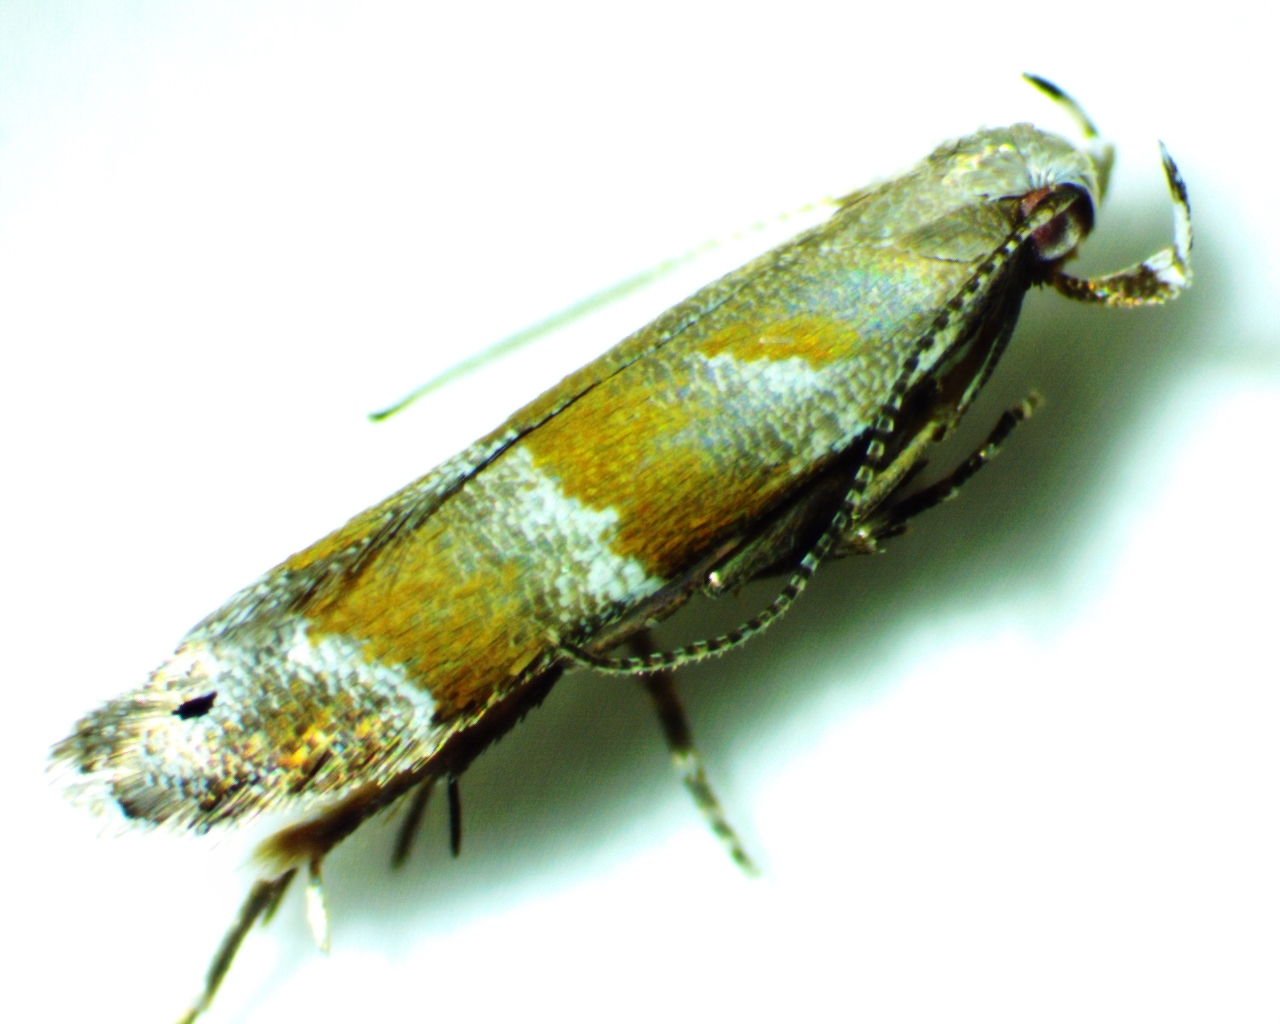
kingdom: Animalia
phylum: Arthropoda
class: Insecta
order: Lepidoptera
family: Gelechiidae
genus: Battaristis
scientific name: Battaristis vittella
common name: Orange stripe-backed moth
